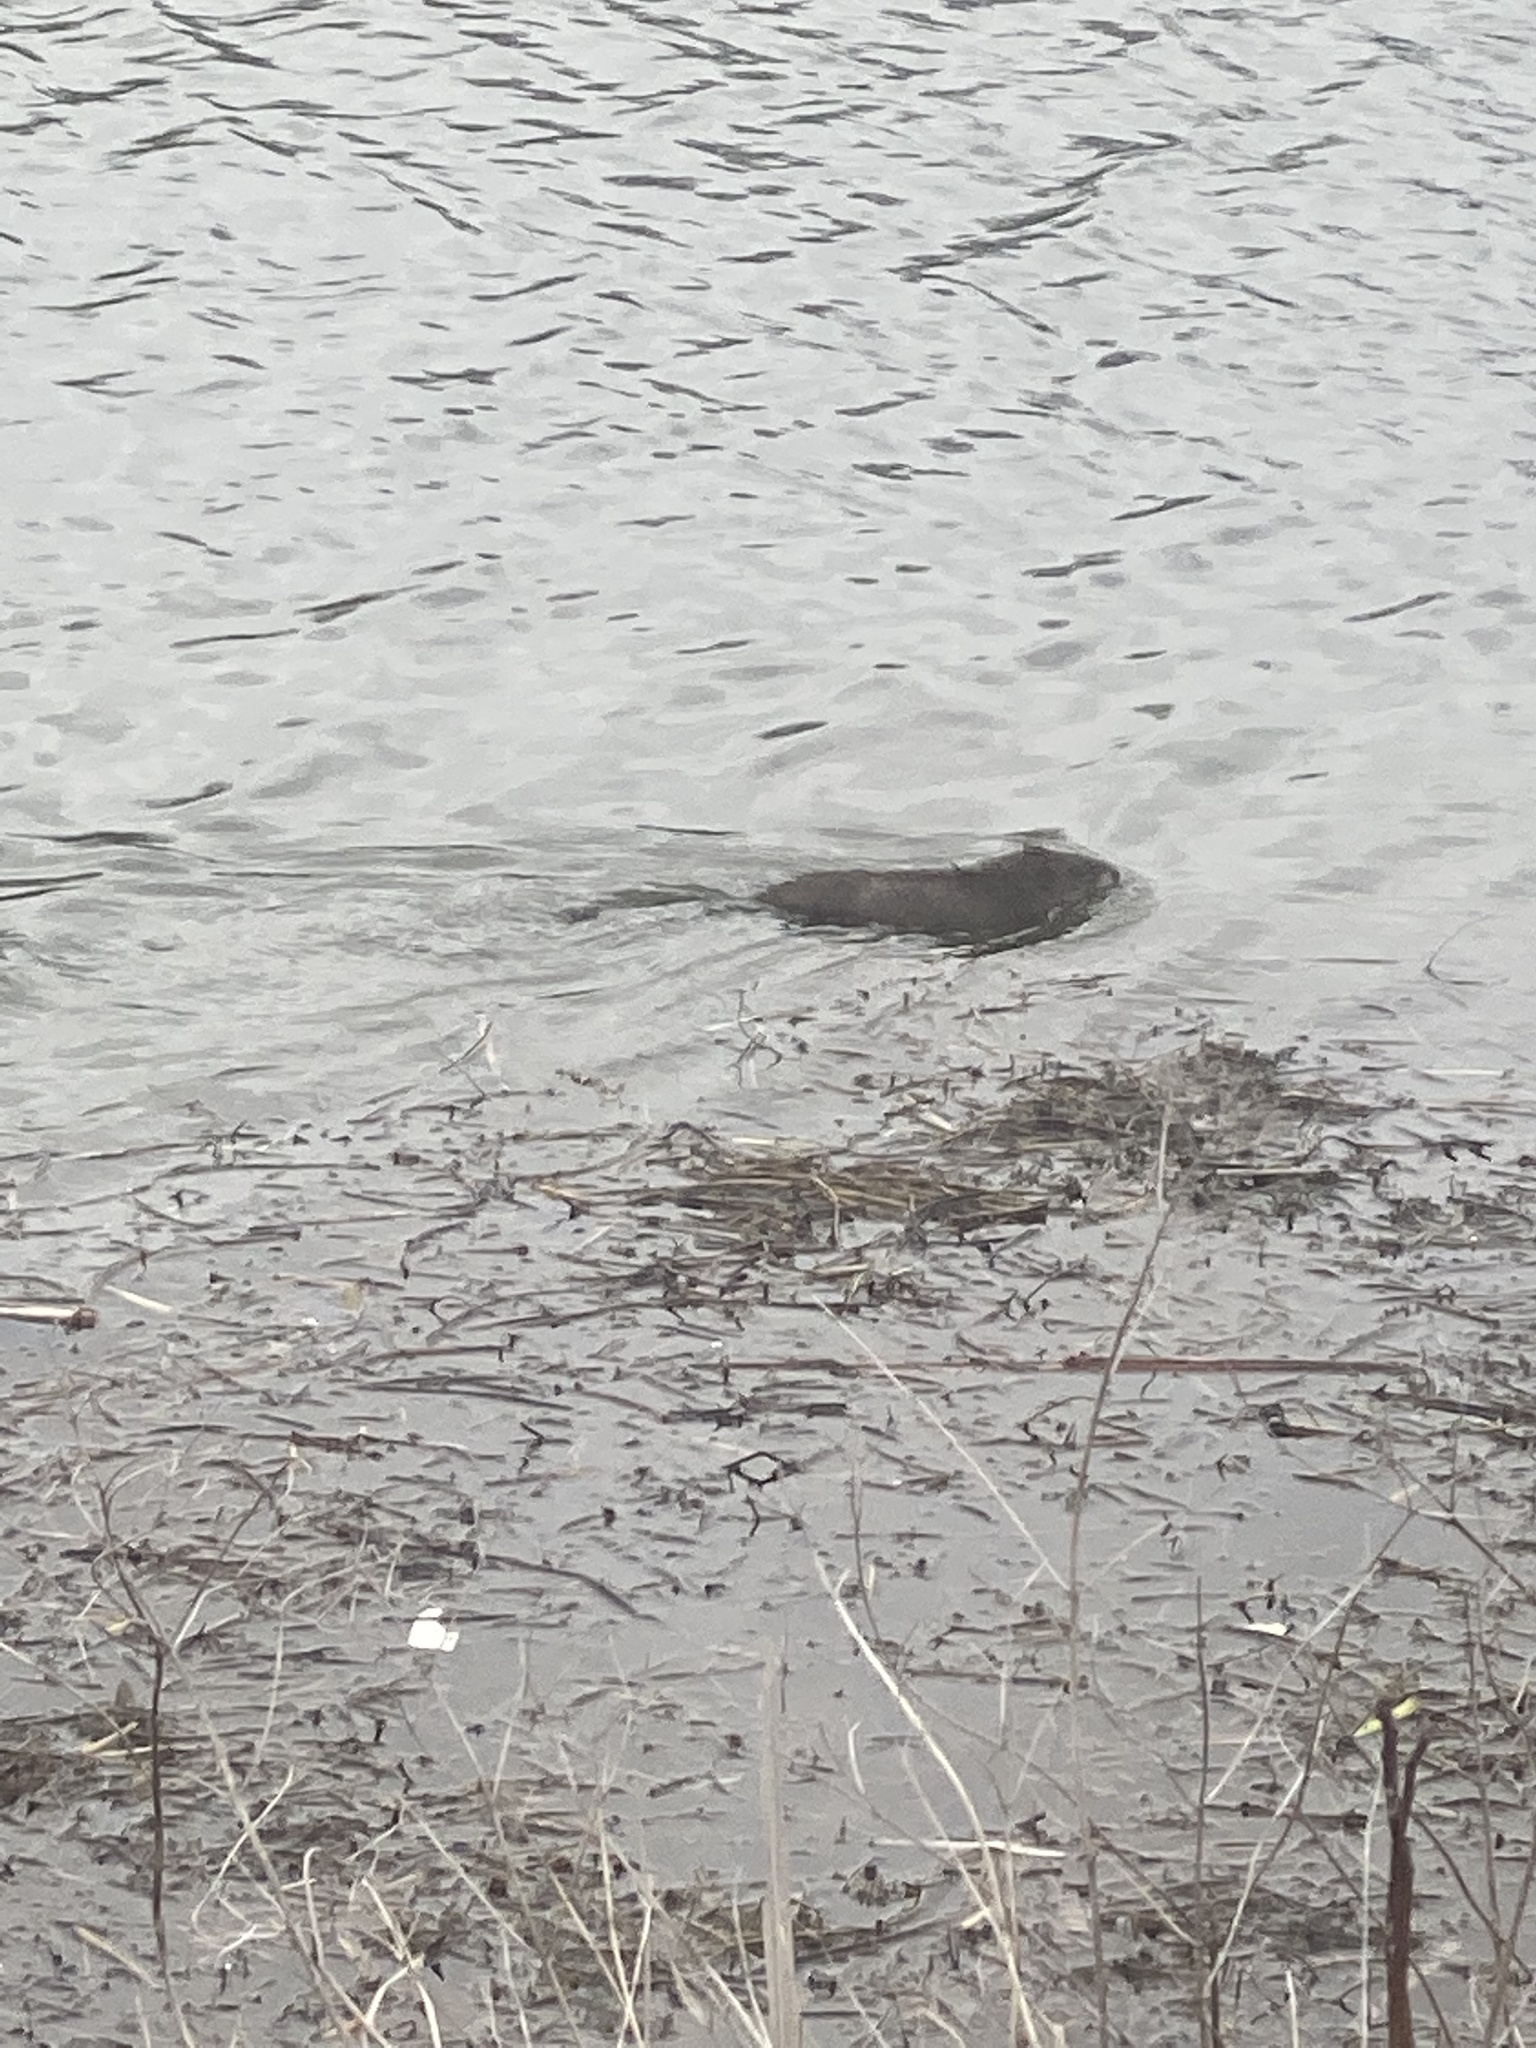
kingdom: Animalia
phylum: Chordata
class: Mammalia
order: Rodentia
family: Cricetidae
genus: Ondatra
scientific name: Ondatra zibethicus
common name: Muskrat
